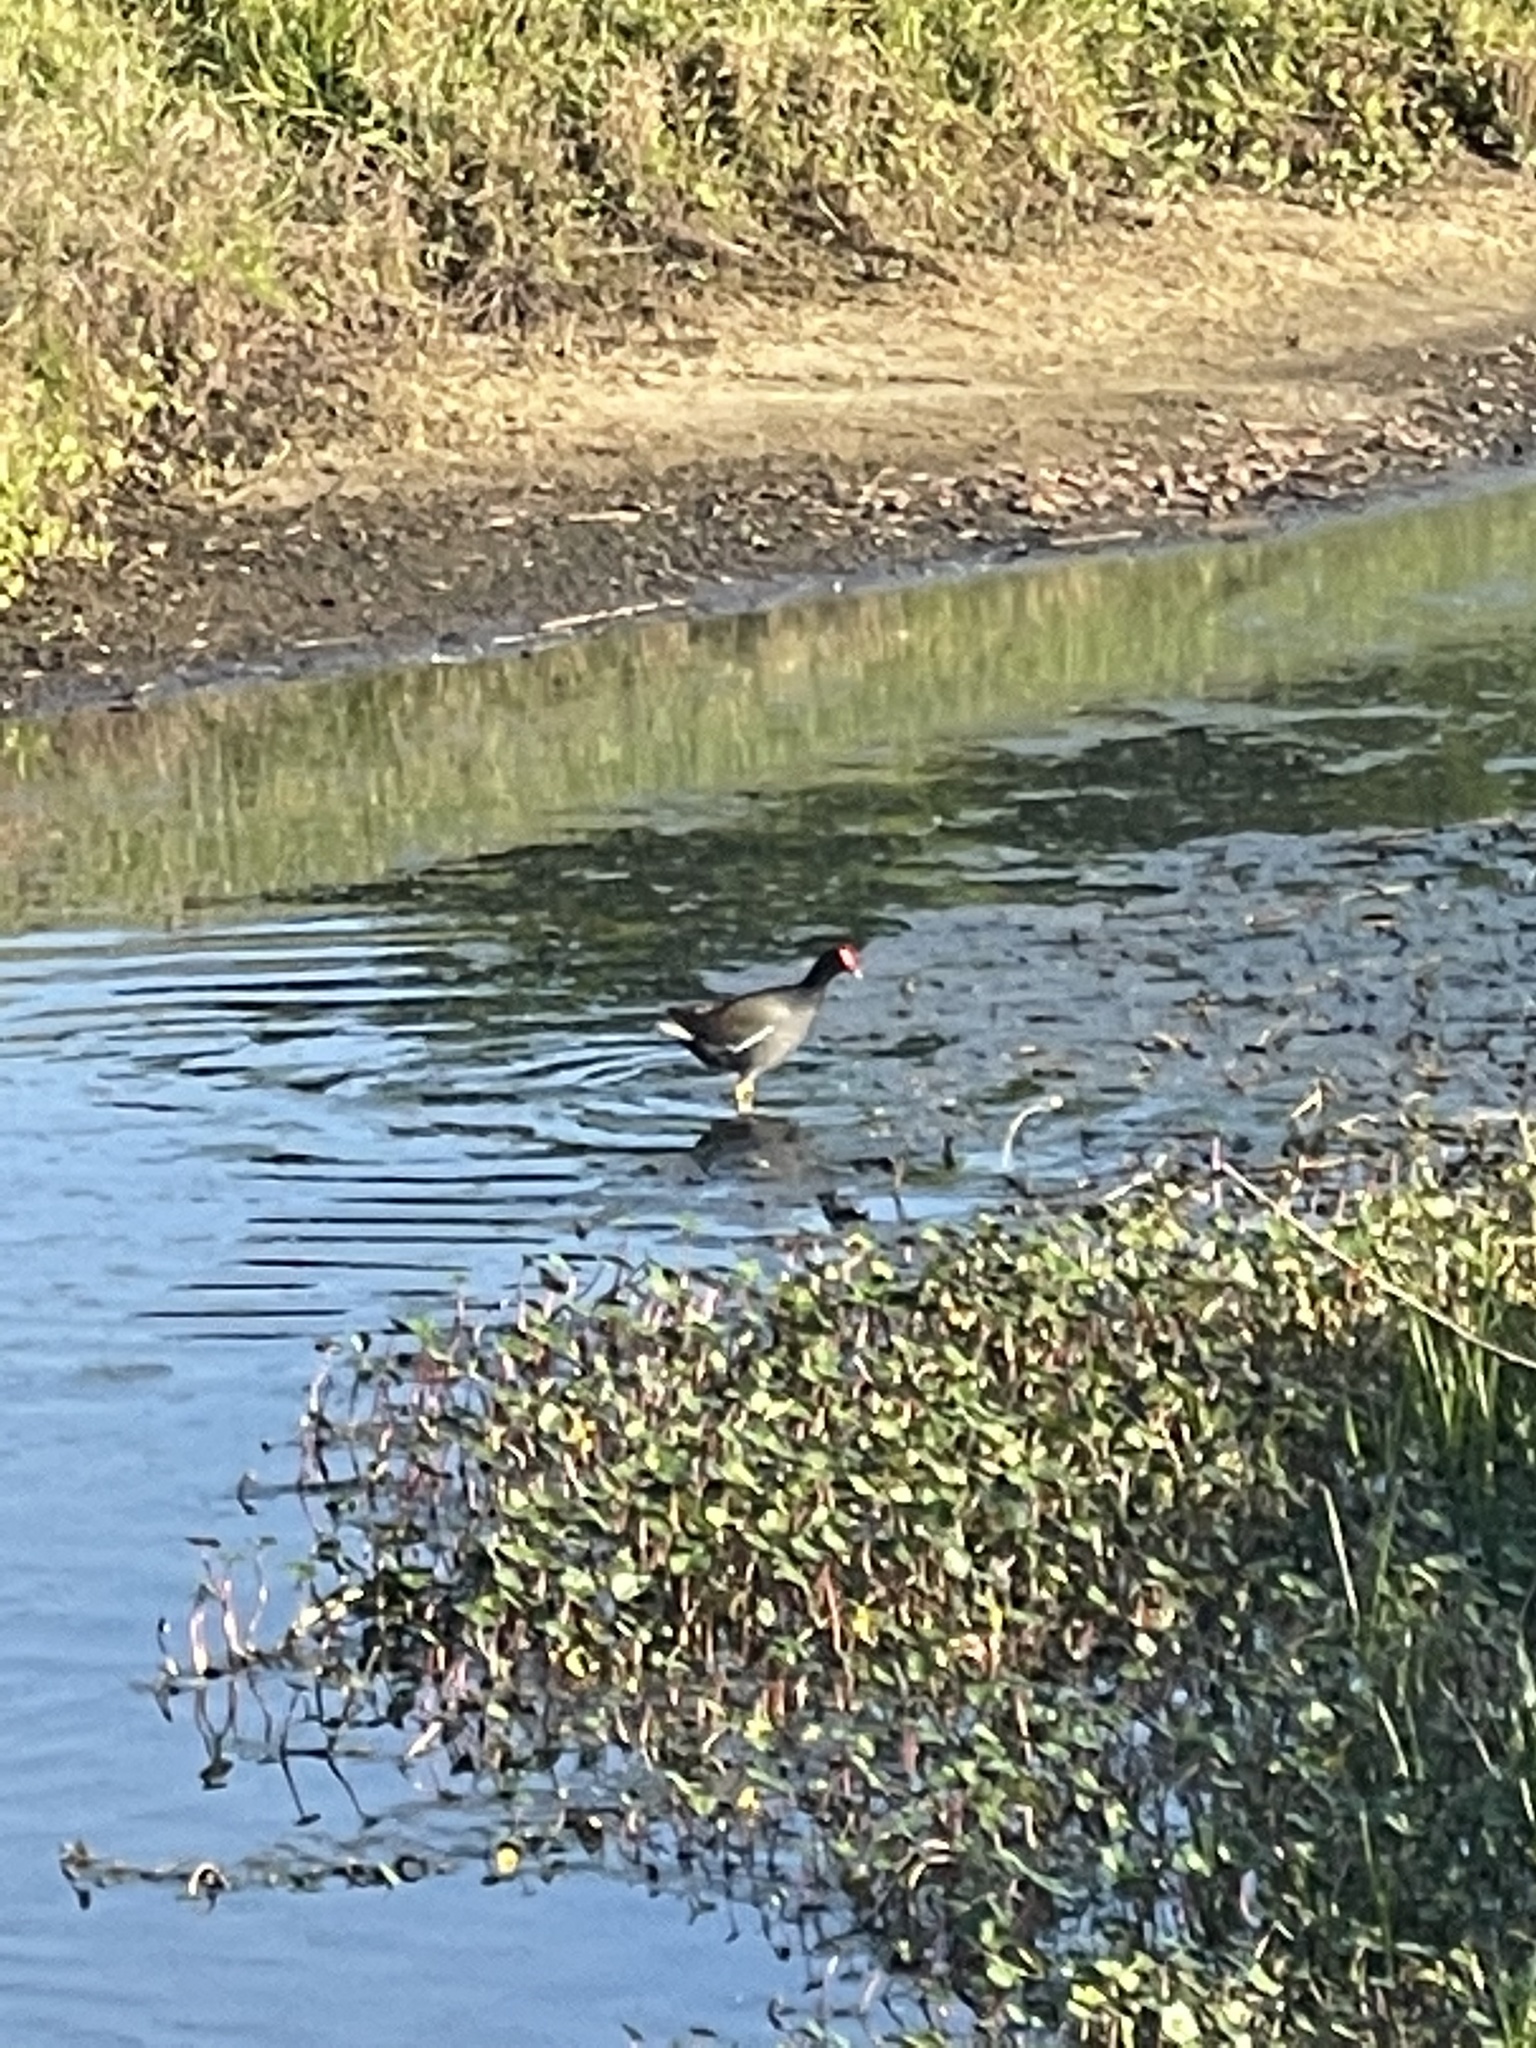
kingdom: Animalia
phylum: Chordata
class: Aves
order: Gruiformes
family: Rallidae
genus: Gallinula
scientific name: Gallinula chloropus
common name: Common moorhen
